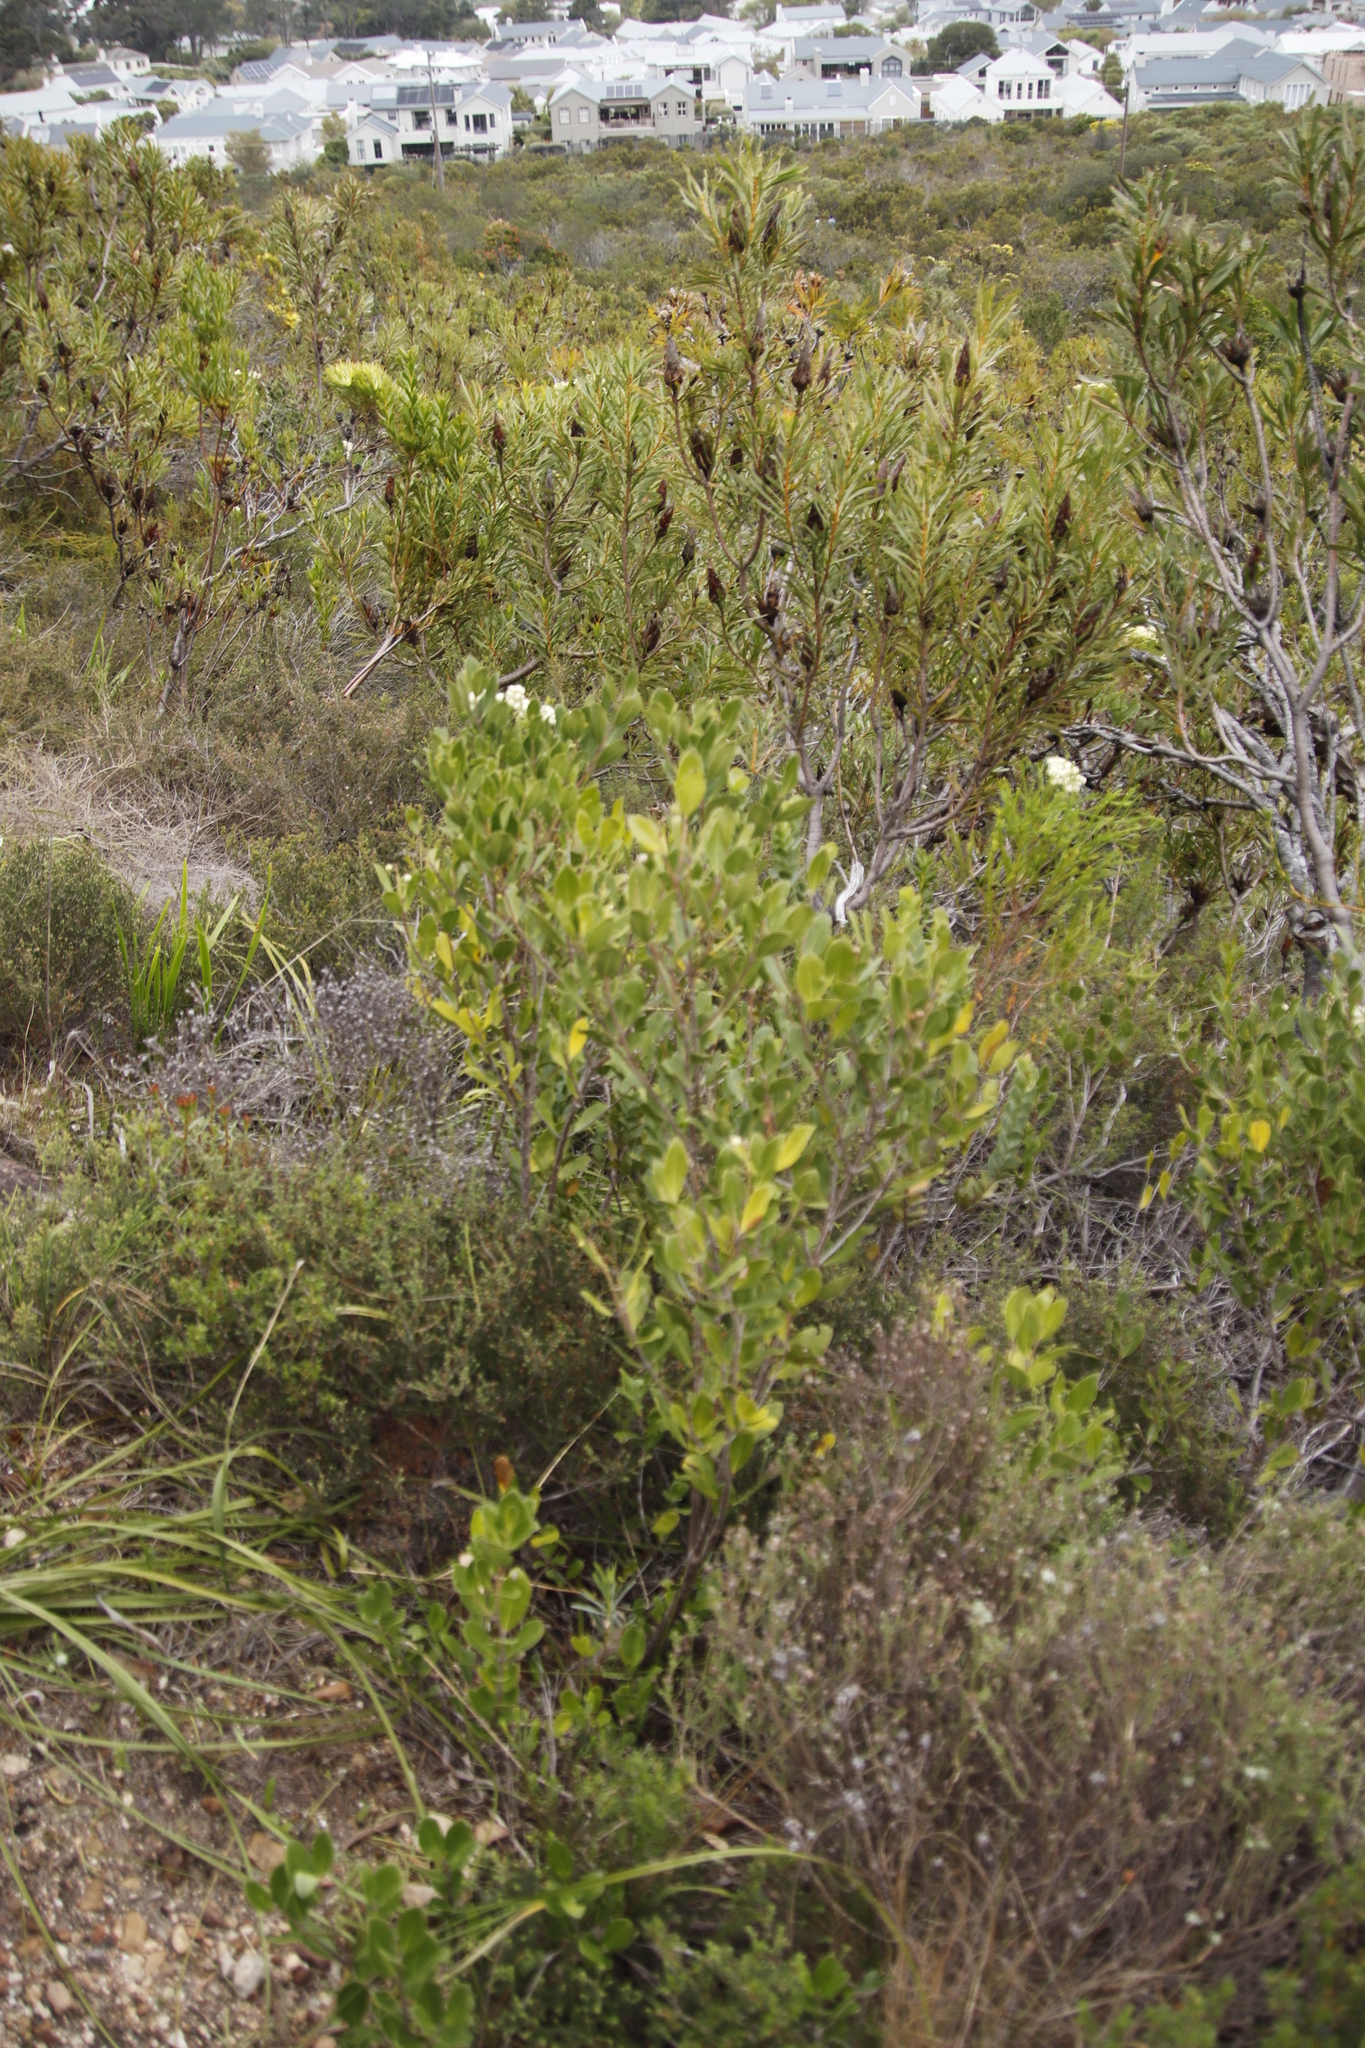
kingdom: Plantae
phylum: Tracheophyta
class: Magnoliopsida
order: Lamiales
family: Oleaceae
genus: Olea
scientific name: Olea capensis
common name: Black ironwood
